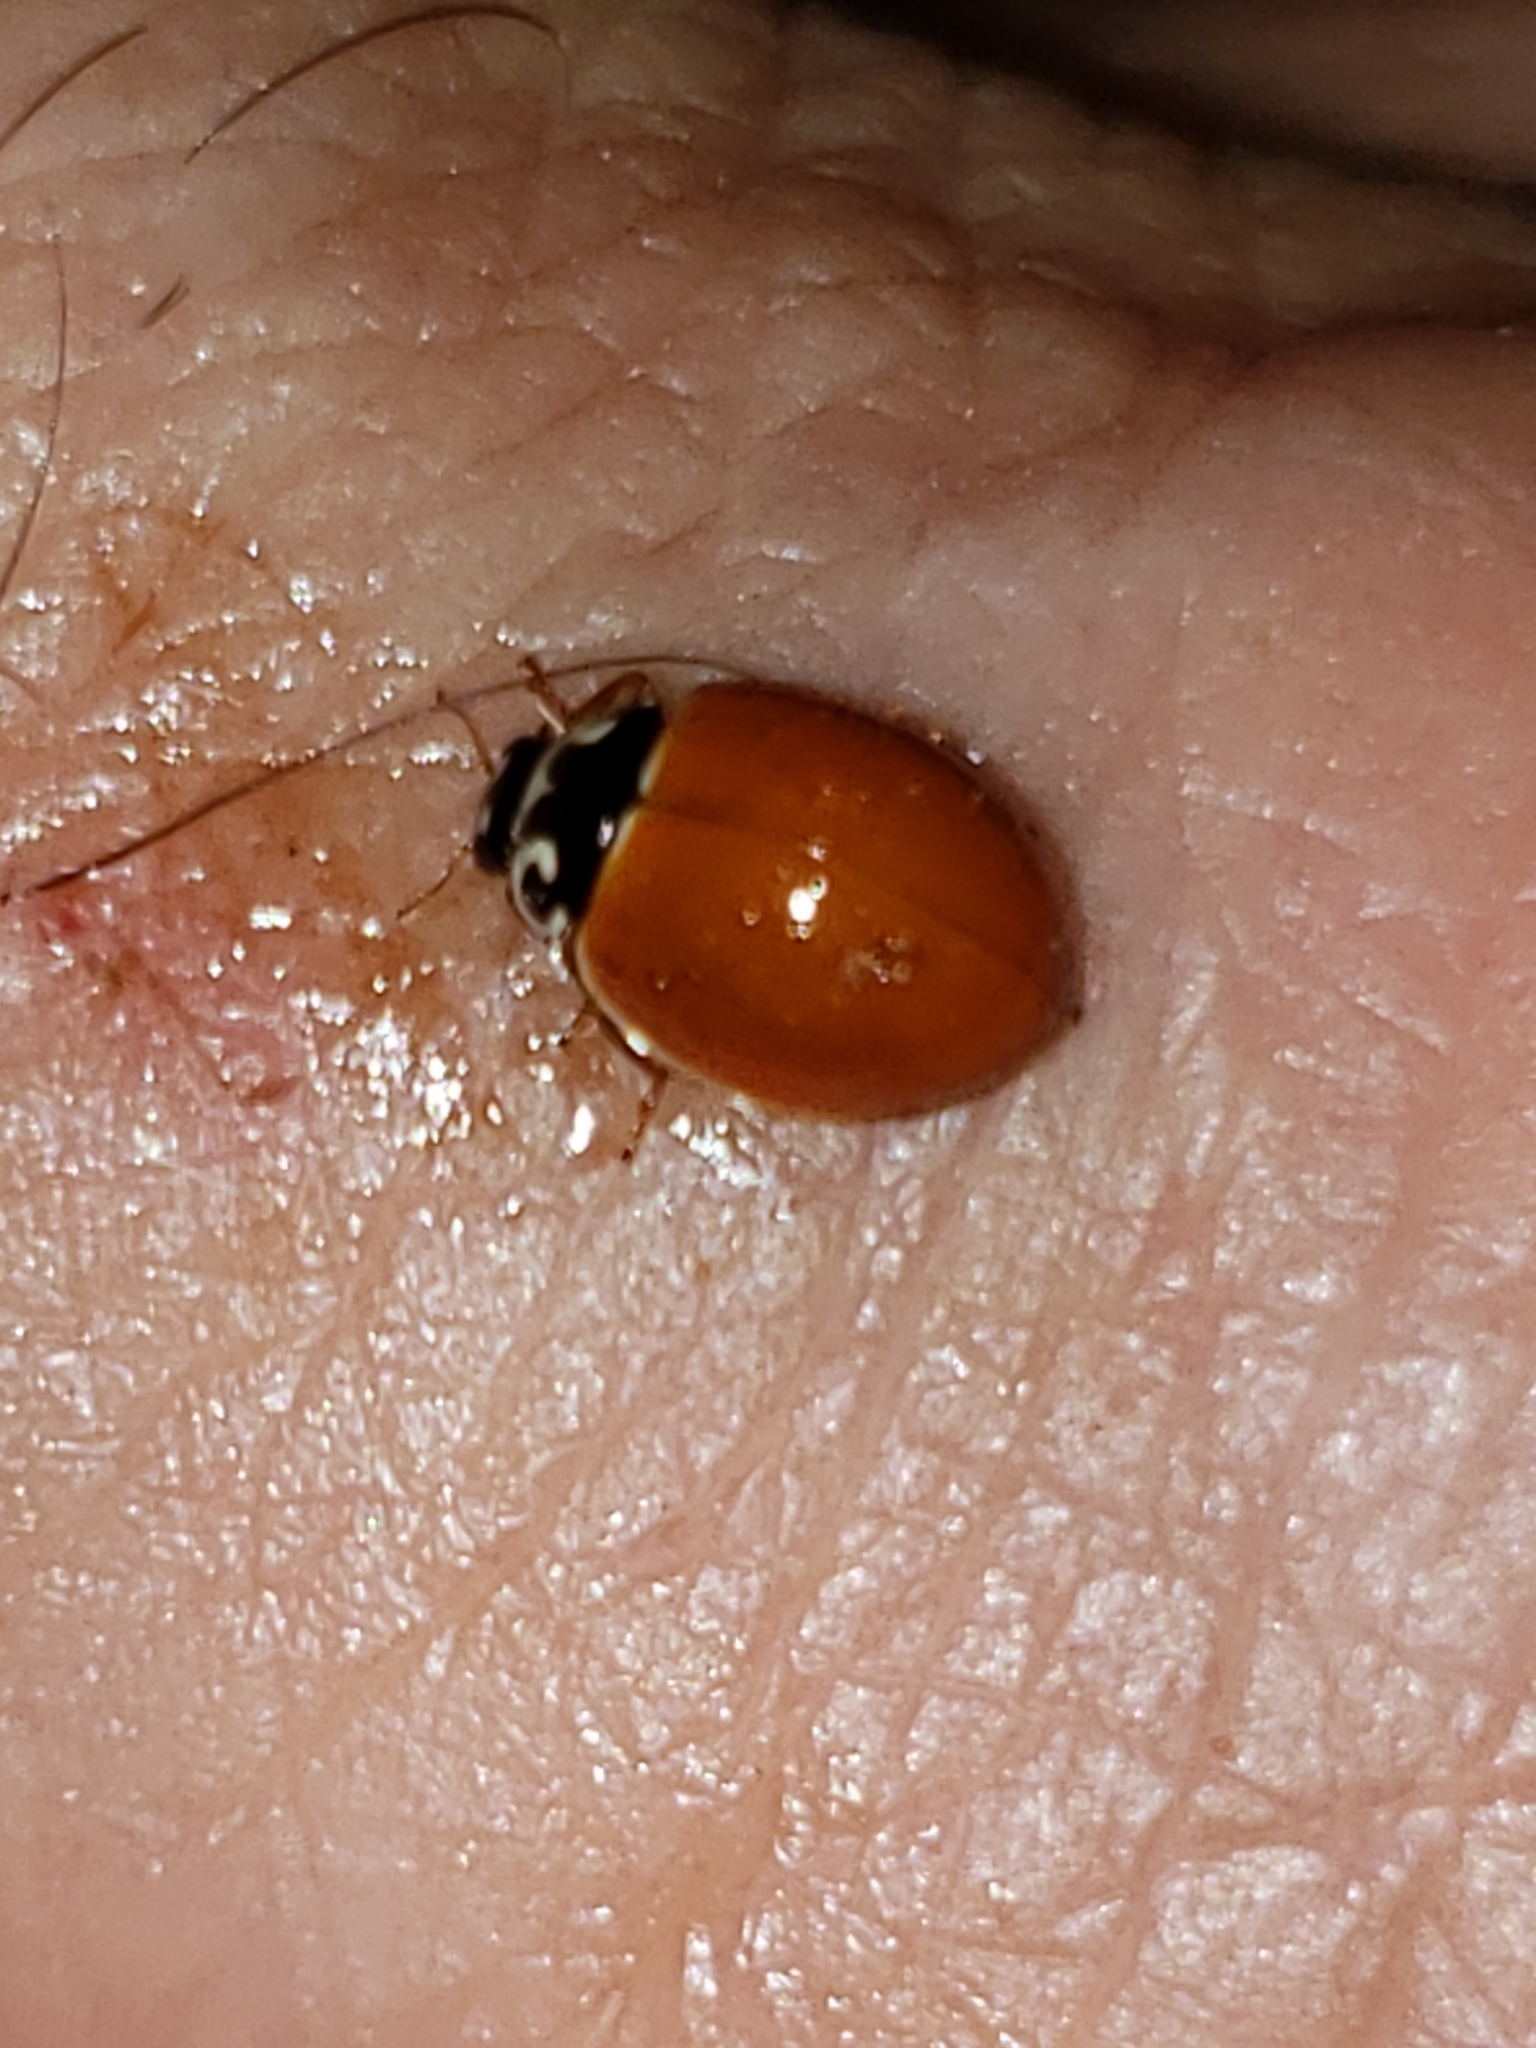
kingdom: Animalia
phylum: Arthropoda
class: Insecta
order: Coleoptera
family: Coccinellidae
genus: Cycloneda
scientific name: Cycloneda munda
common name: Polished lady beetle
